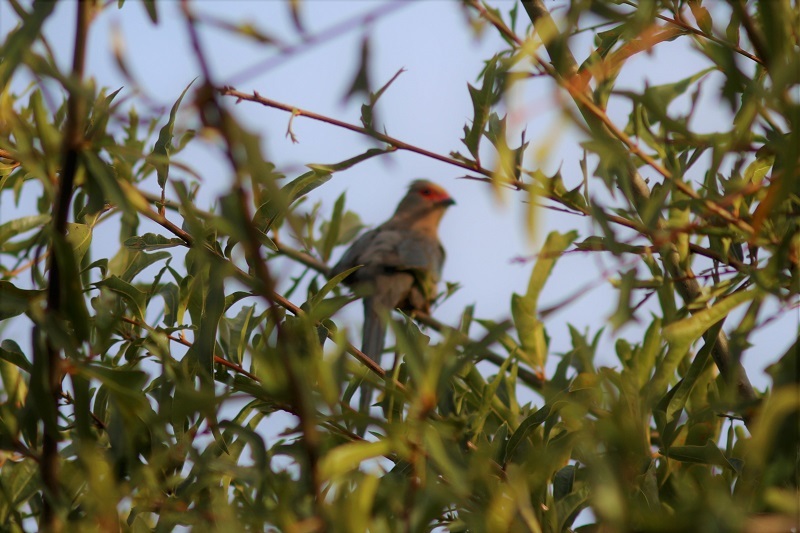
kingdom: Animalia
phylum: Chordata
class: Aves
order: Coliiformes
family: Coliidae
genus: Urocolius
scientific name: Urocolius indicus
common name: Red-faced mousebird
